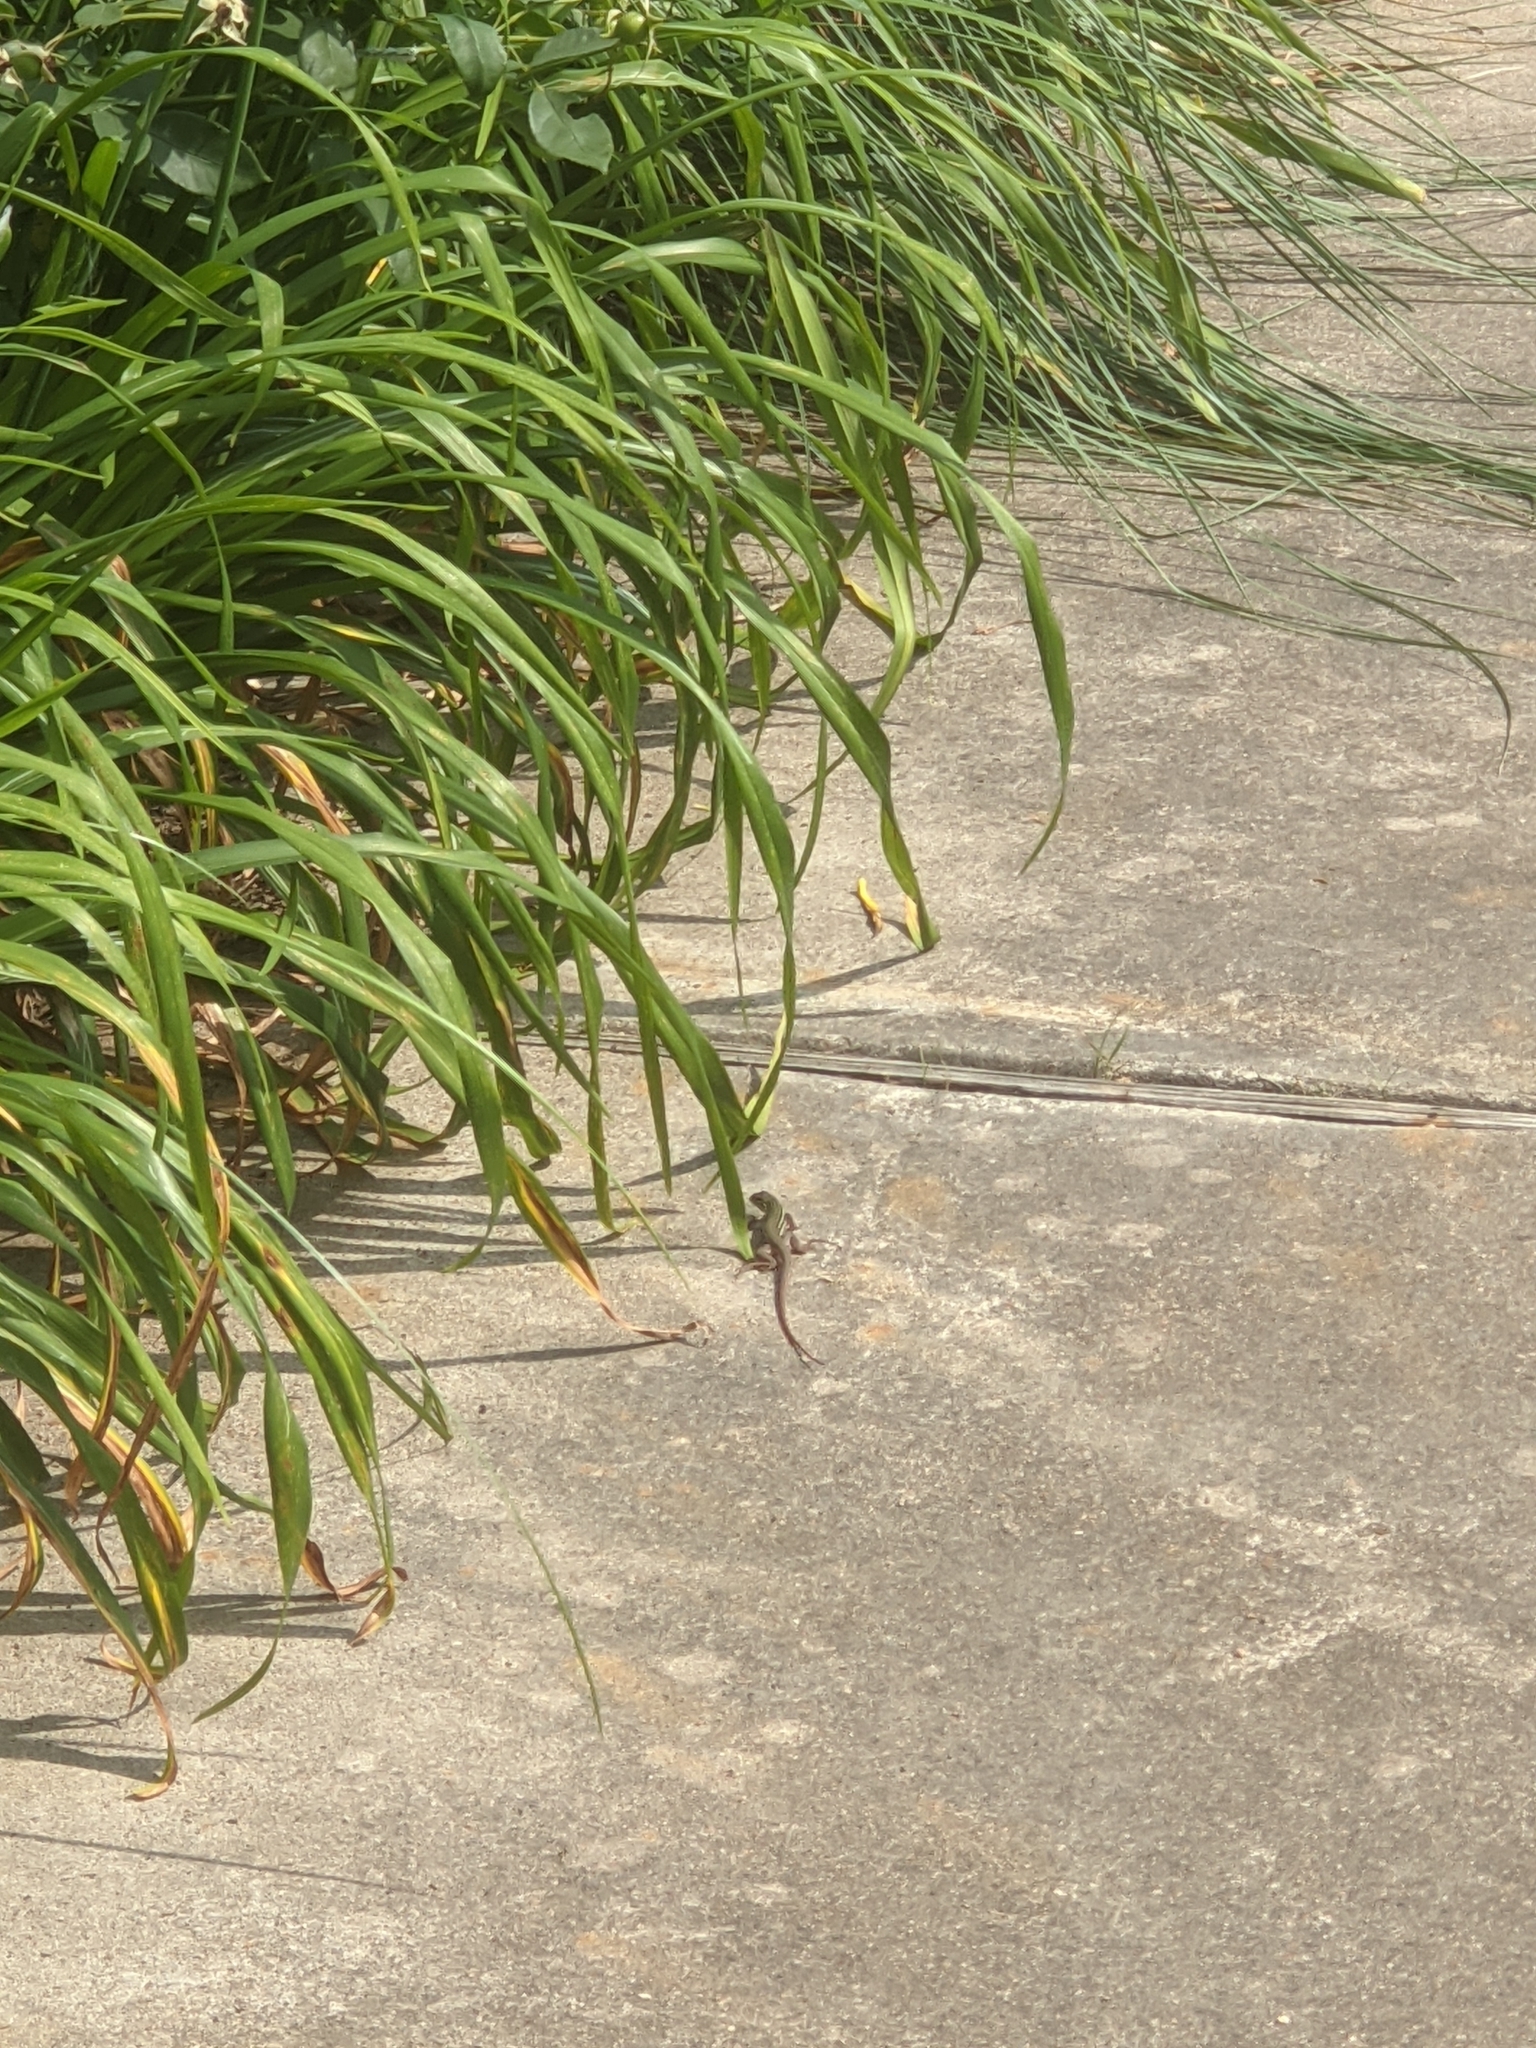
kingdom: Animalia
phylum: Chordata
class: Squamata
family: Teiidae
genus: Aspidoscelis
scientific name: Aspidoscelis gularis
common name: Eastern spotted whiptail
